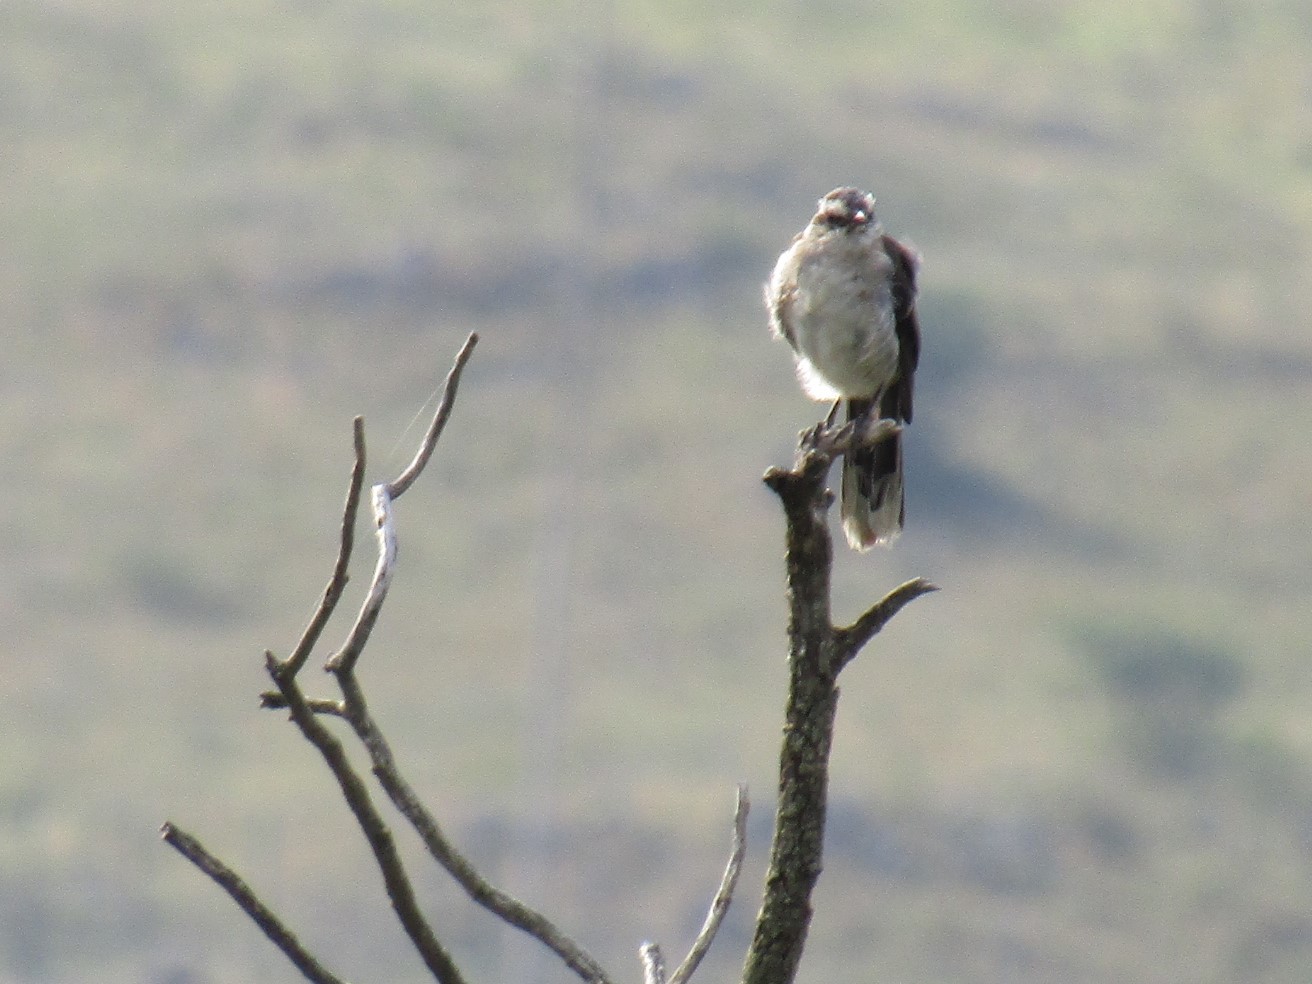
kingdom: Animalia
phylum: Chordata
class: Aves
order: Passeriformes
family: Mimidae
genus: Mimus
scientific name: Mimus saturninus
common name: Chalk-browed mockingbird
